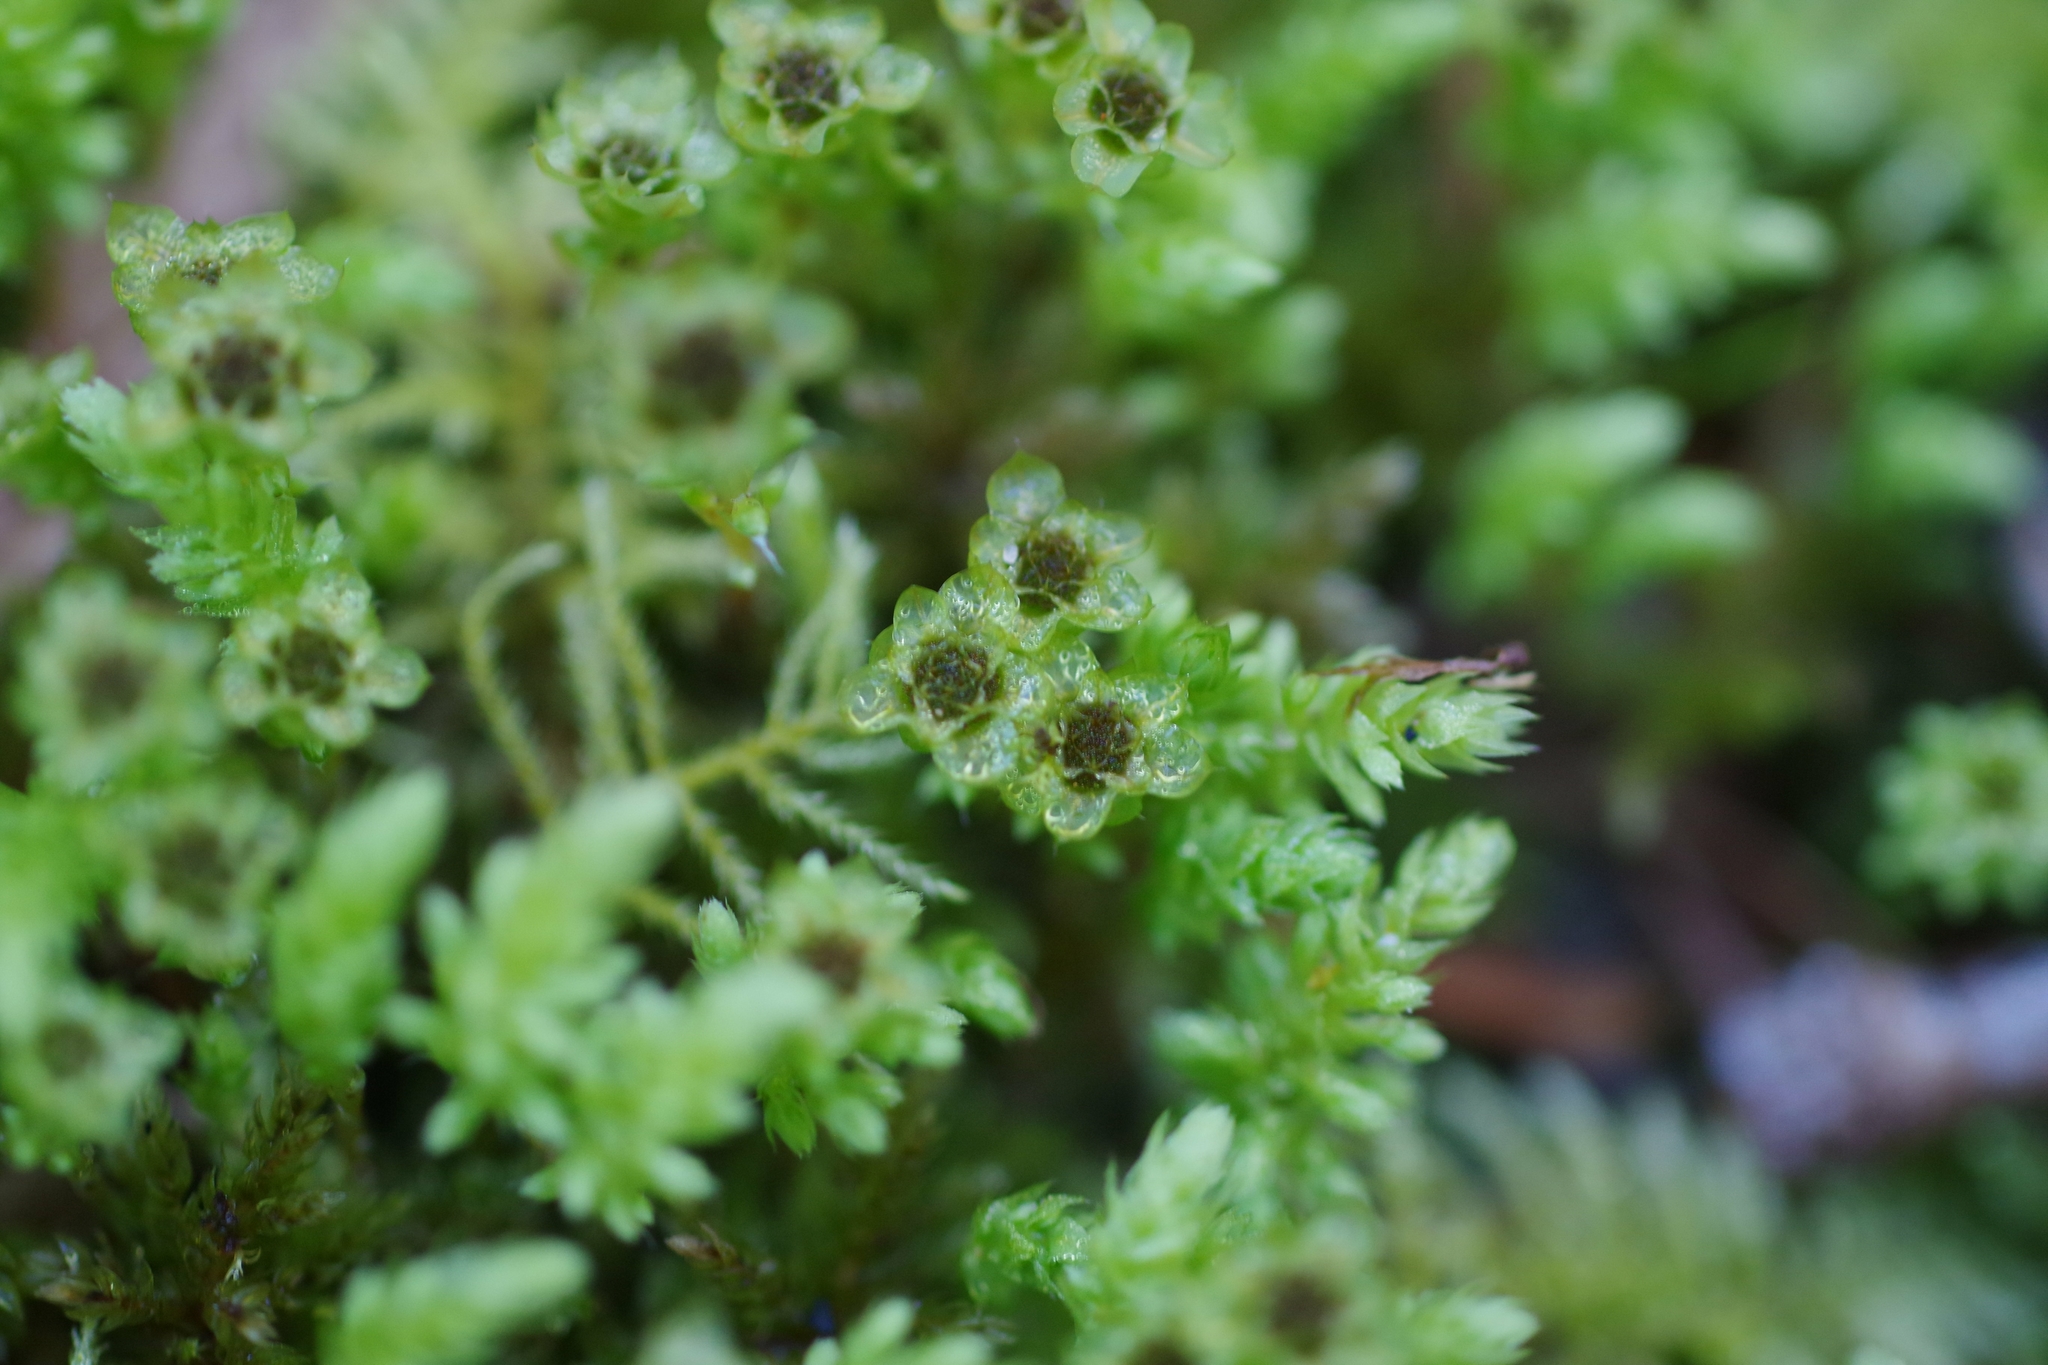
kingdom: Plantae
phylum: Bryophyta
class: Bryopsida
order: Bryales
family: Mniaceae
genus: Leucolepis
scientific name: Leucolepis acanthoneura
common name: Leucolepis umbrella moss
